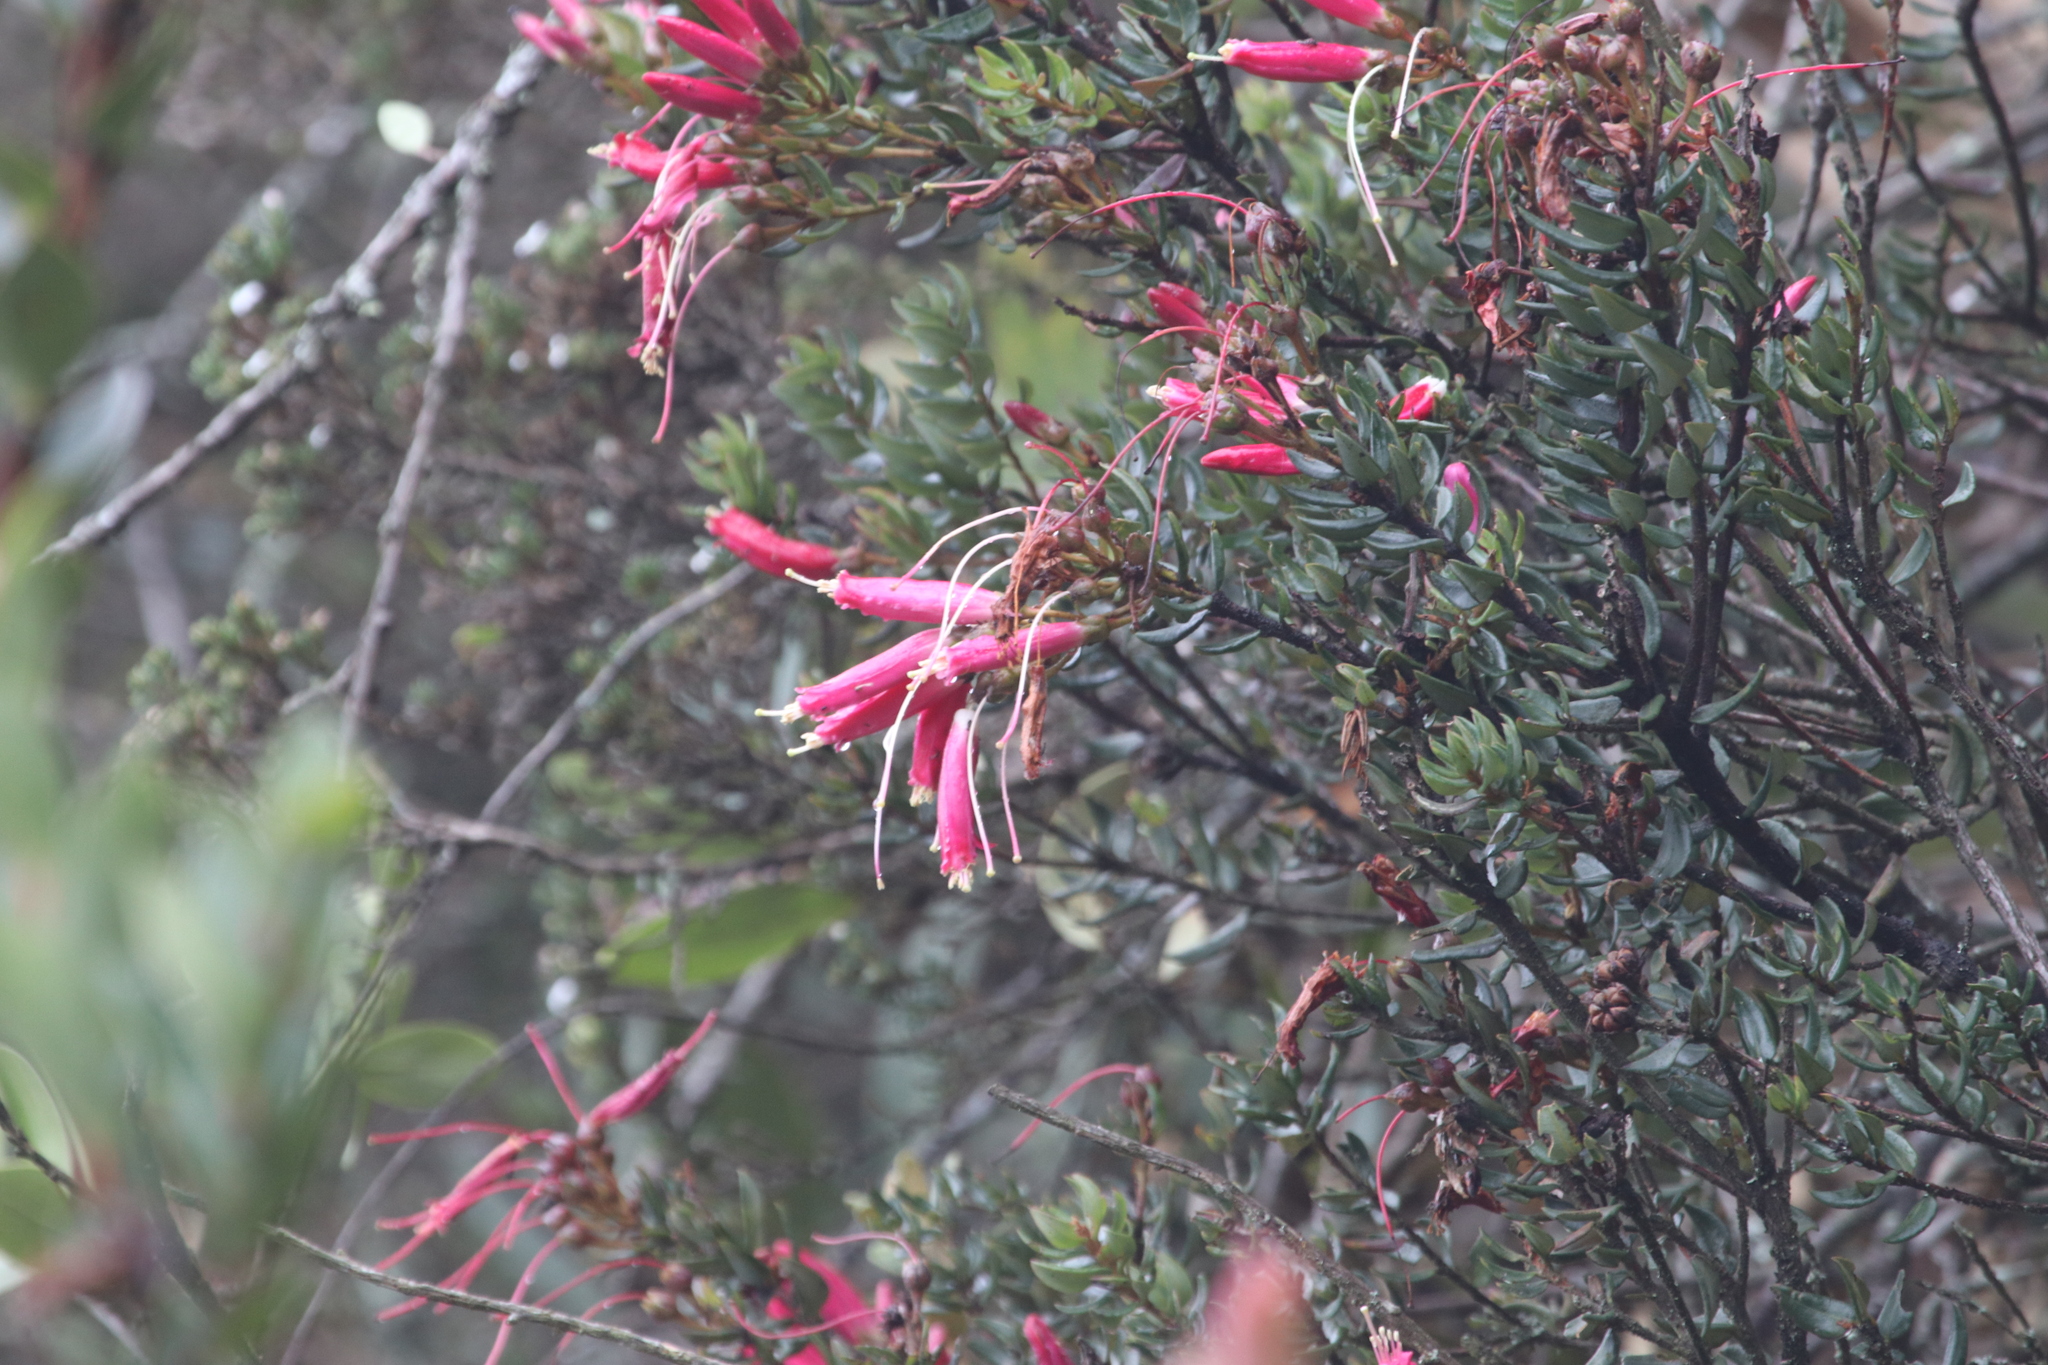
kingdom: Plantae
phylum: Tracheophyta
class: Magnoliopsida
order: Ericales
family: Ericaceae
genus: Bejaria
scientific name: Bejaria resinosa
